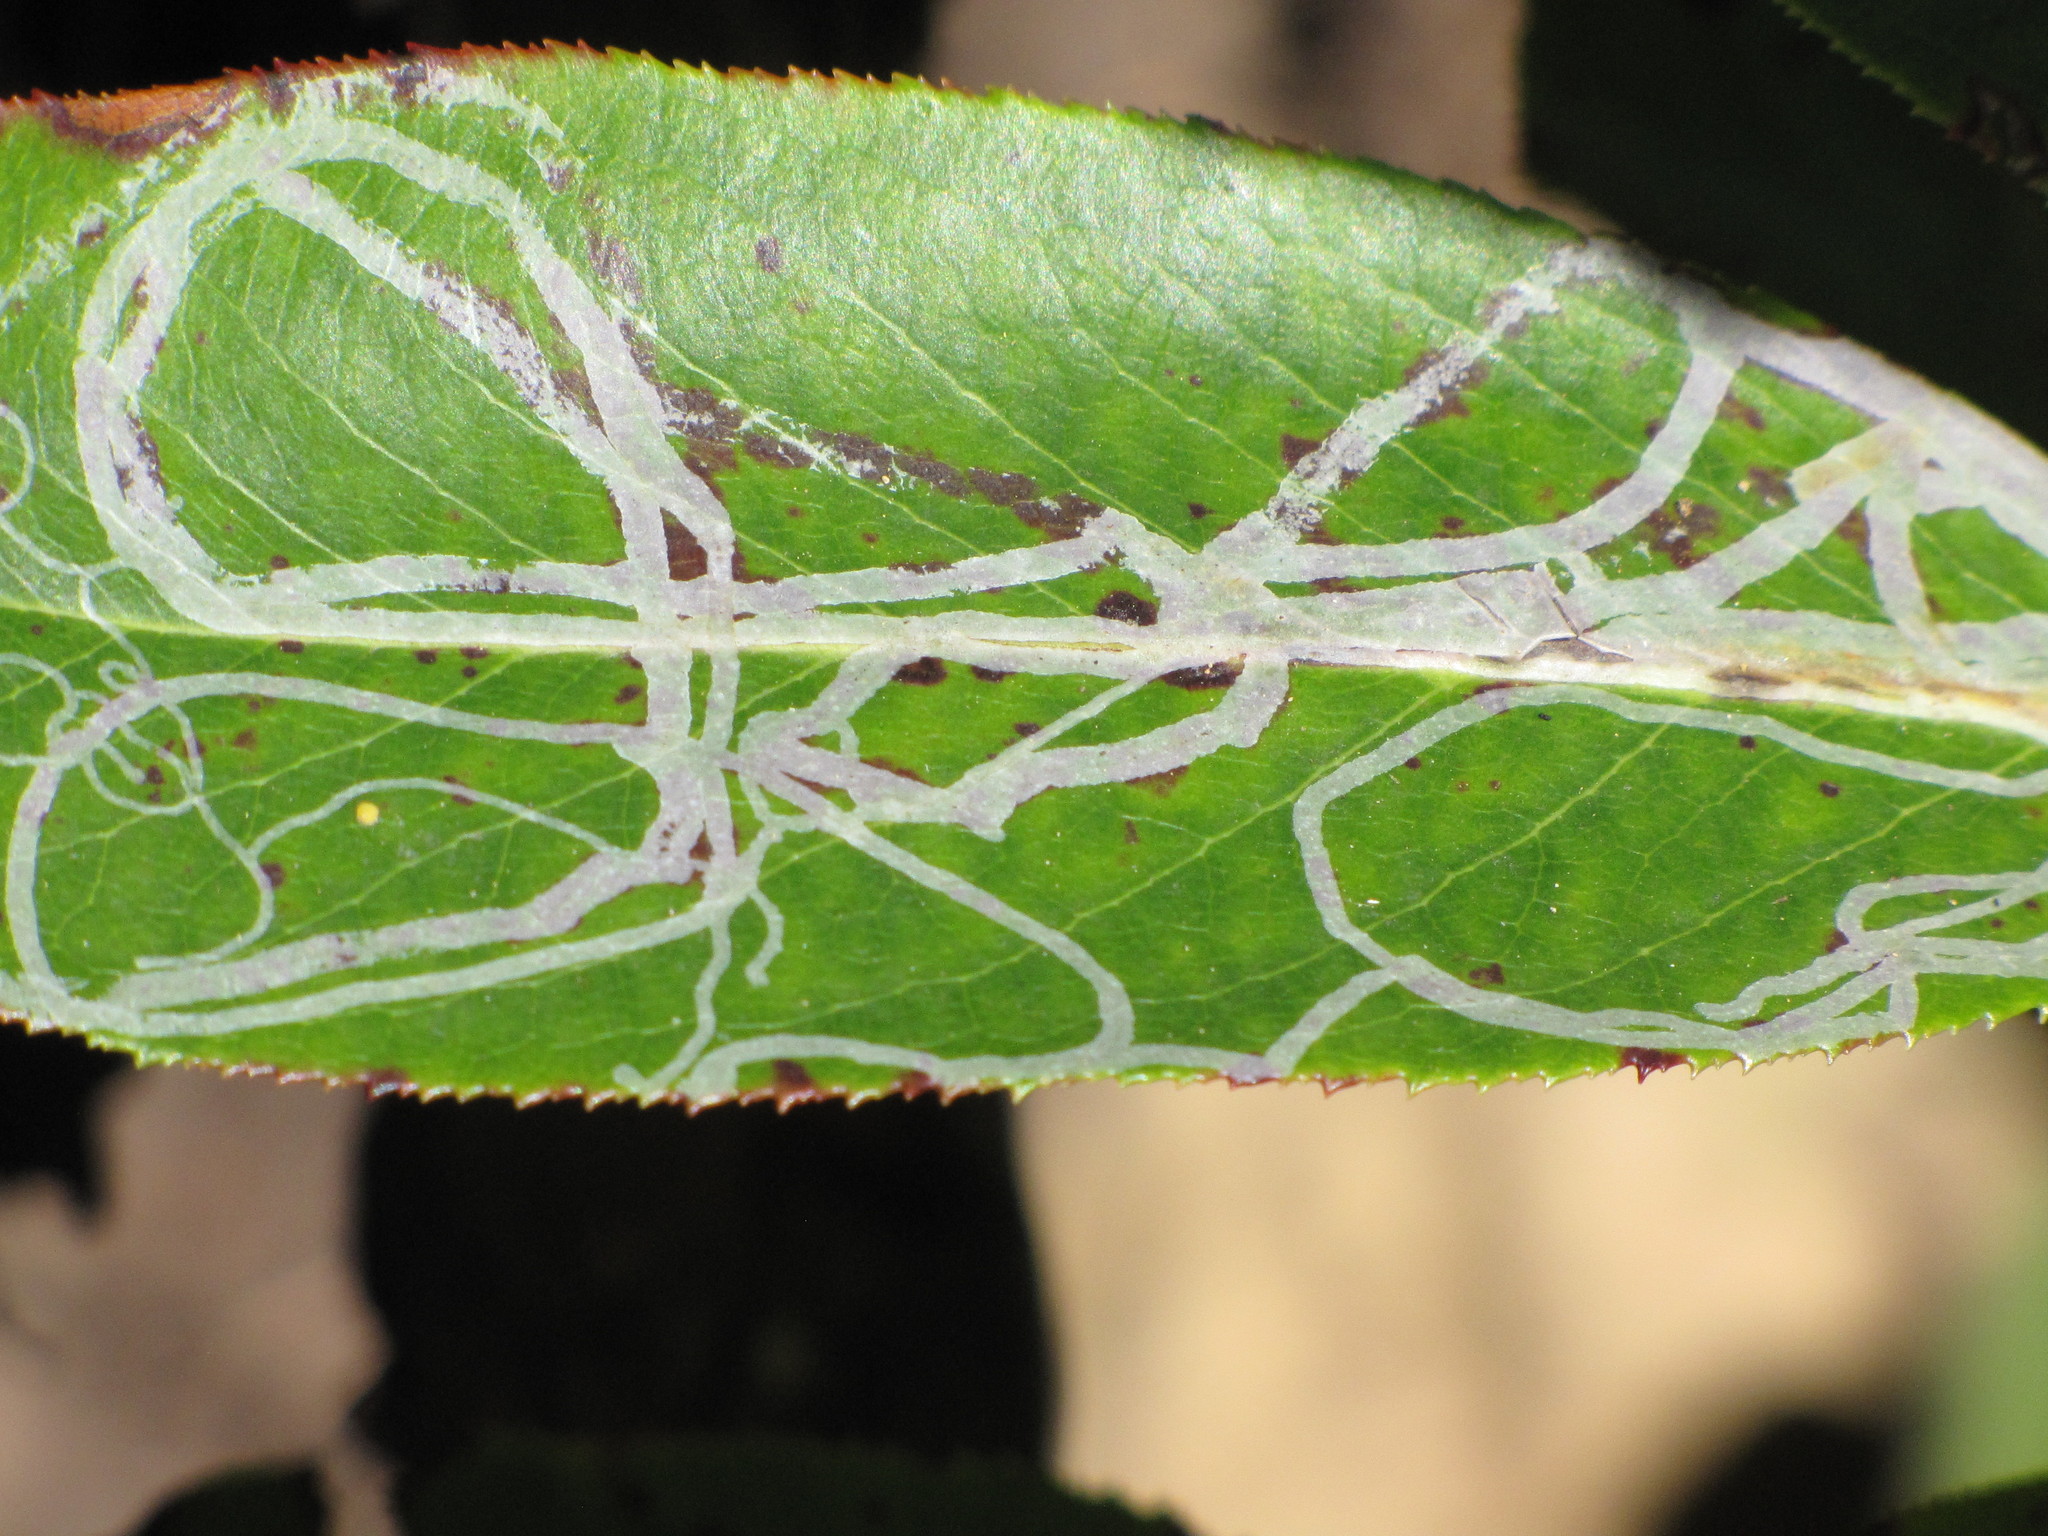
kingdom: Animalia
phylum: Arthropoda
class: Insecta
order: Lepidoptera
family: Gracillariidae
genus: Marmara
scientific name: Marmara arbutiella
